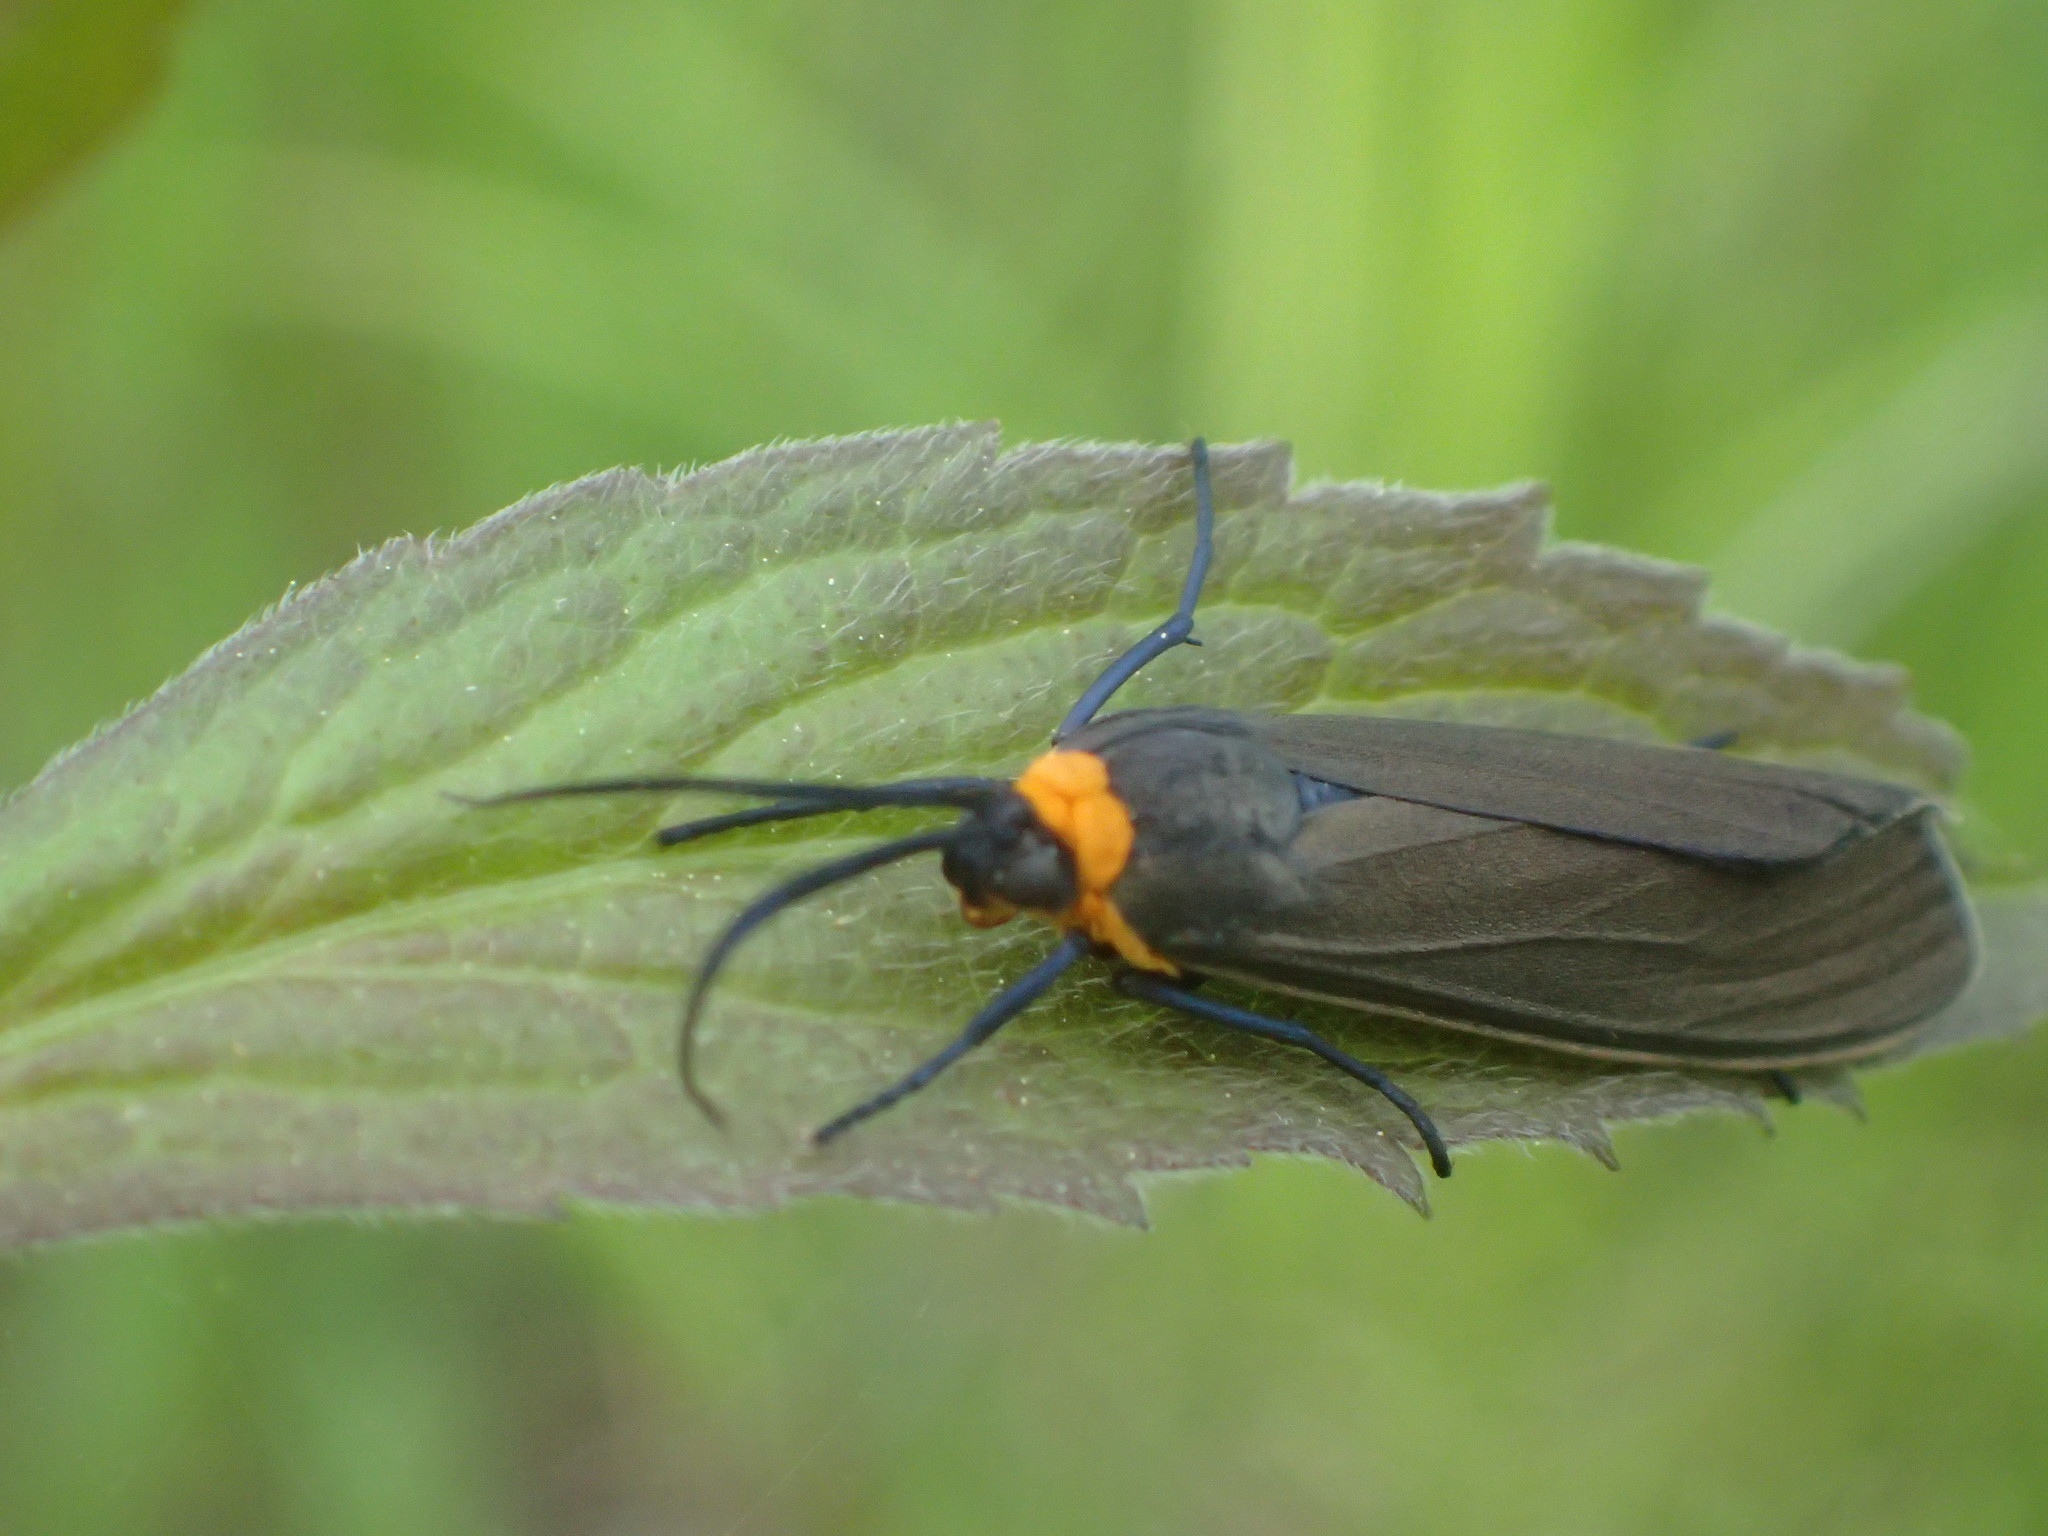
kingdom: Animalia
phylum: Arthropoda
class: Insecta
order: Lepidoptera
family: Erebidae
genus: Cisseps
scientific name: Cisseps fulvicollis
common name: Yellow-collared scape moth
